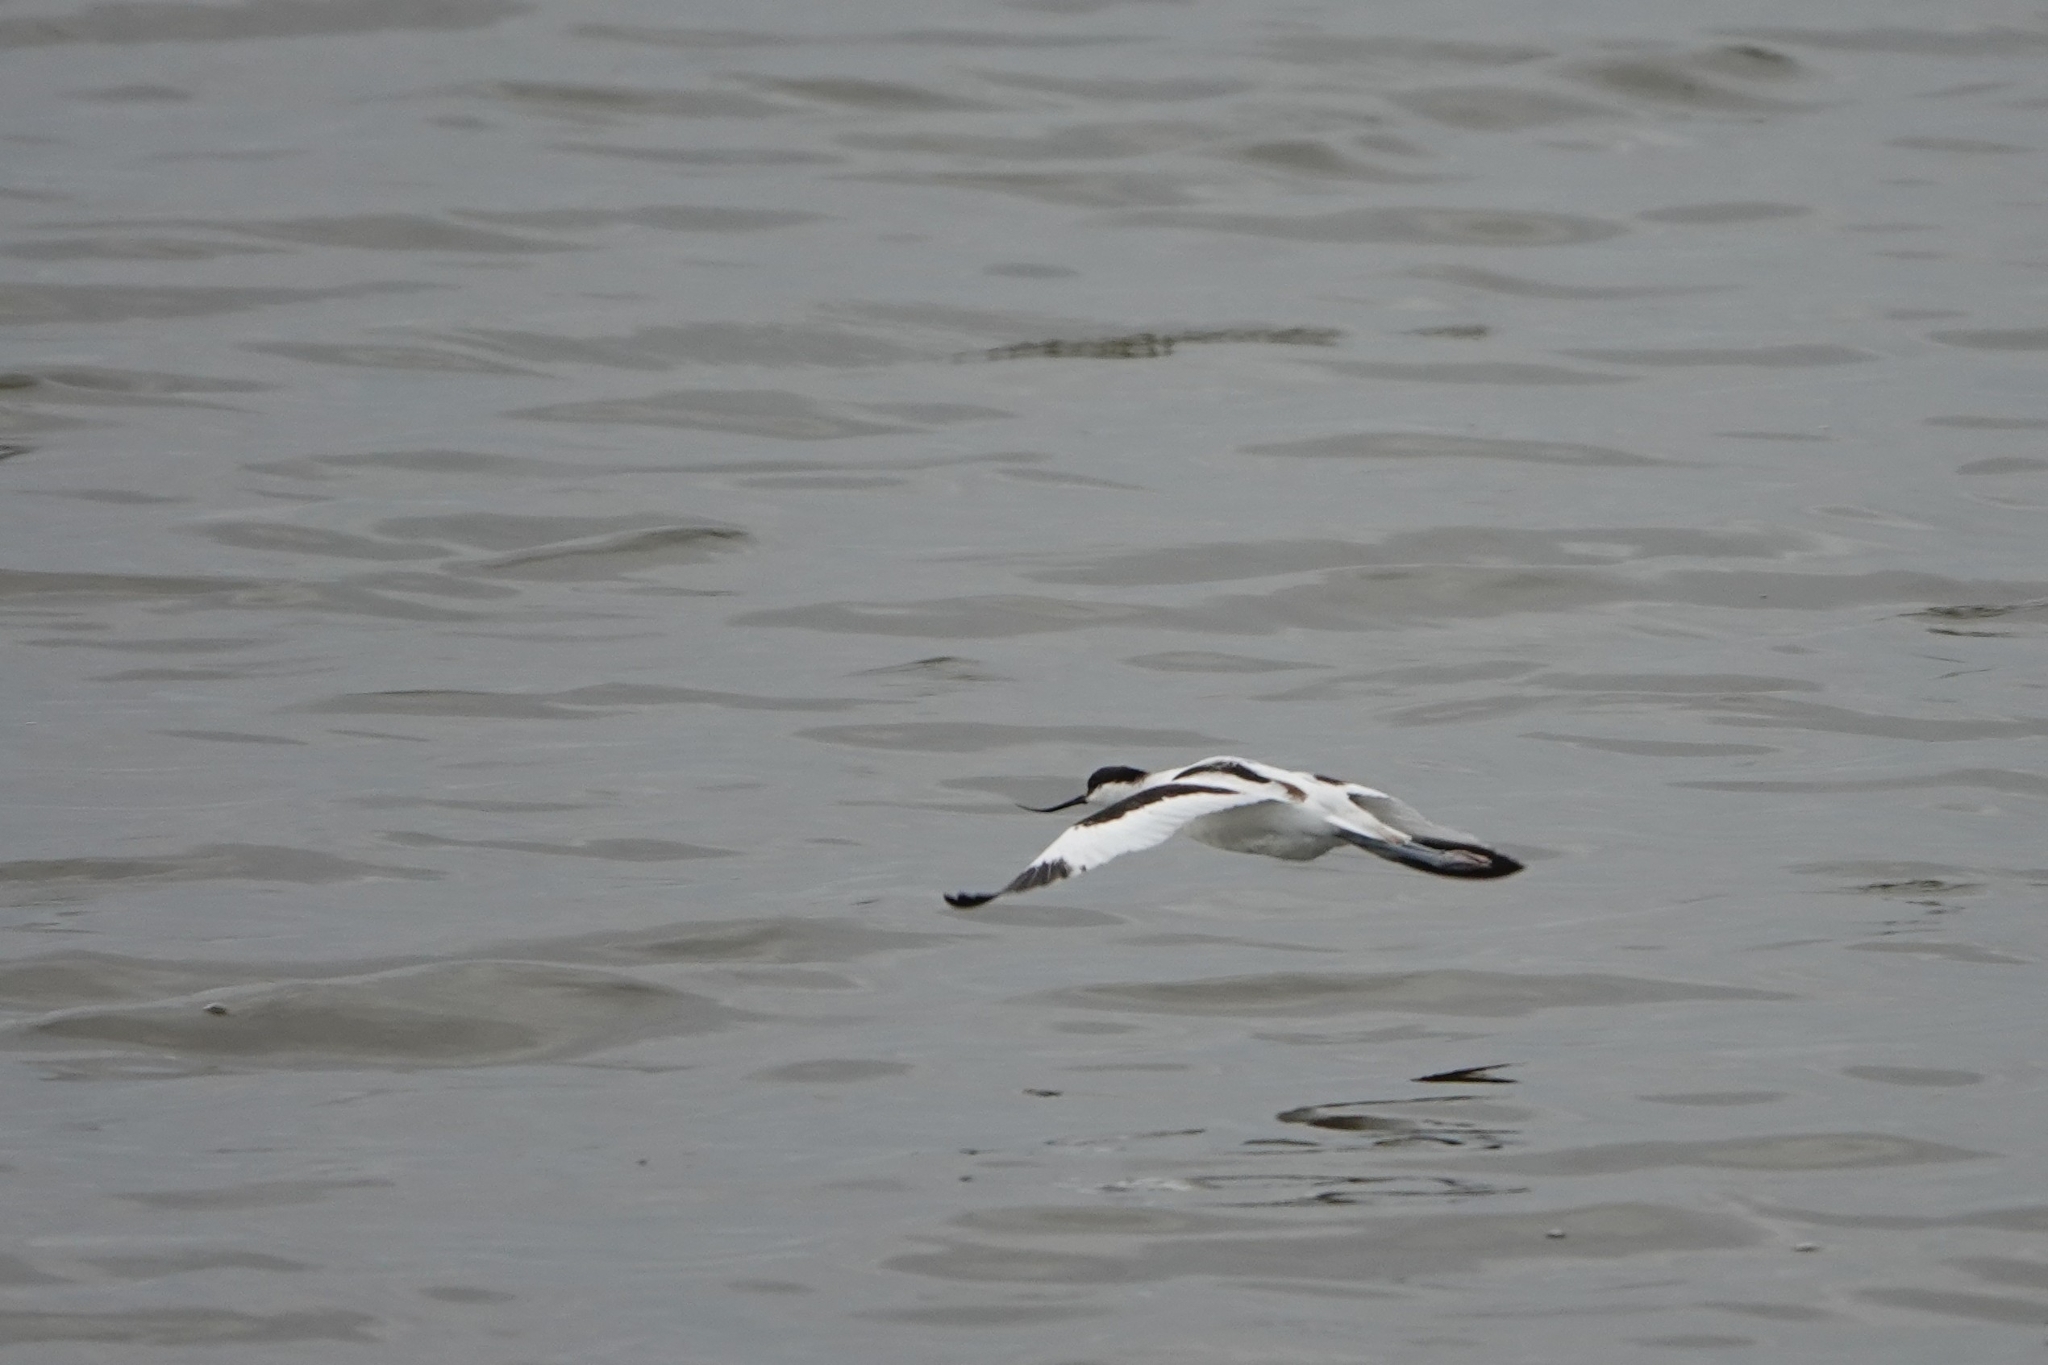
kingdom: Animalia
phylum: Chordata
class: Aves
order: Charadriiformes
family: Recurvirostridae
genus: Recurvirostra
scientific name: Recurvirostra avosetta
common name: Pied avocet
